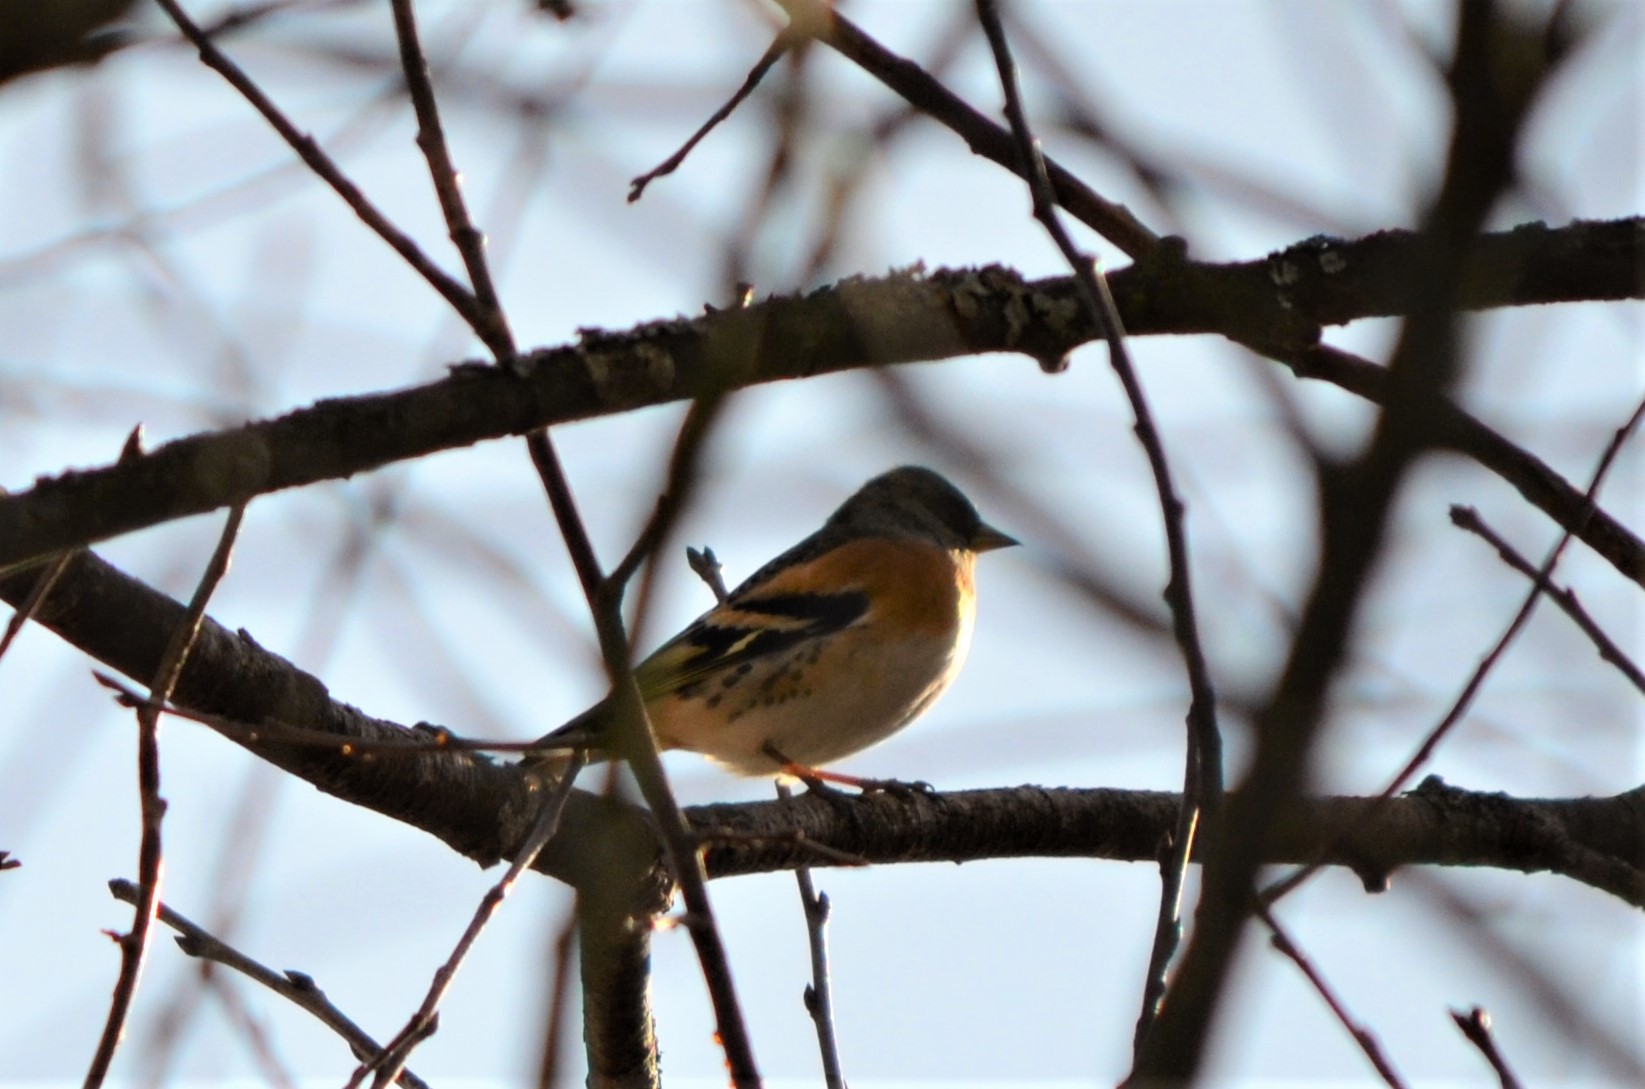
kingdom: Animalia
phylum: Chordata
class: Aves
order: Passeriformes
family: Fringillidae
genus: Fringilla
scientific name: Fringilla montifringilla
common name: Brambling
